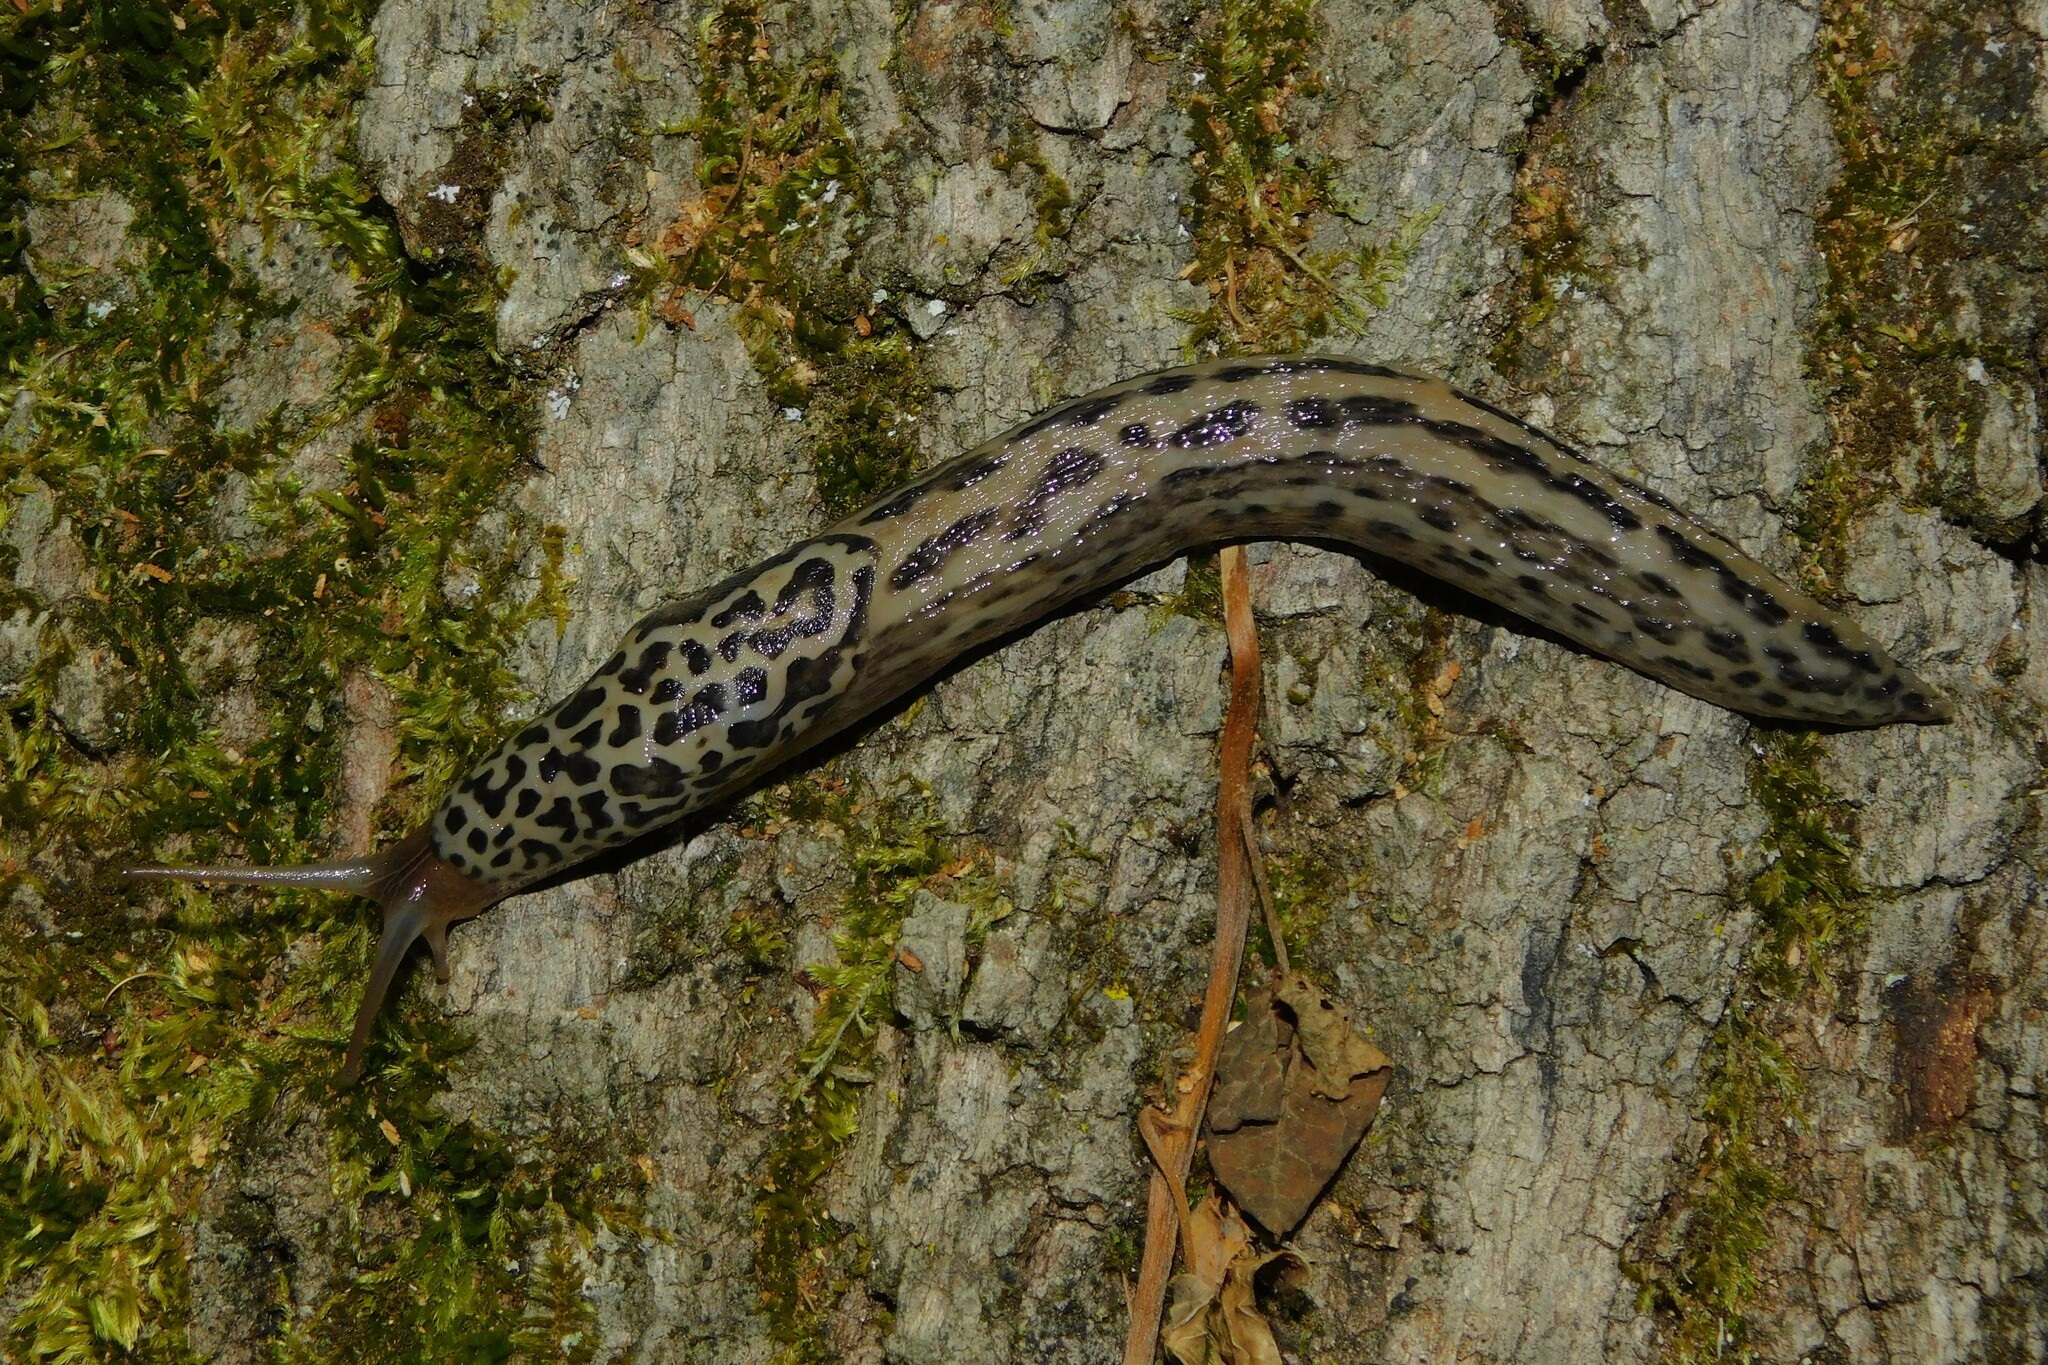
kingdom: Animalia
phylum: Mollusca
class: Gastropoda
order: Stylommatophora
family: Limacidae
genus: Limax
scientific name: Limax maximus
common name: Great grey slug
